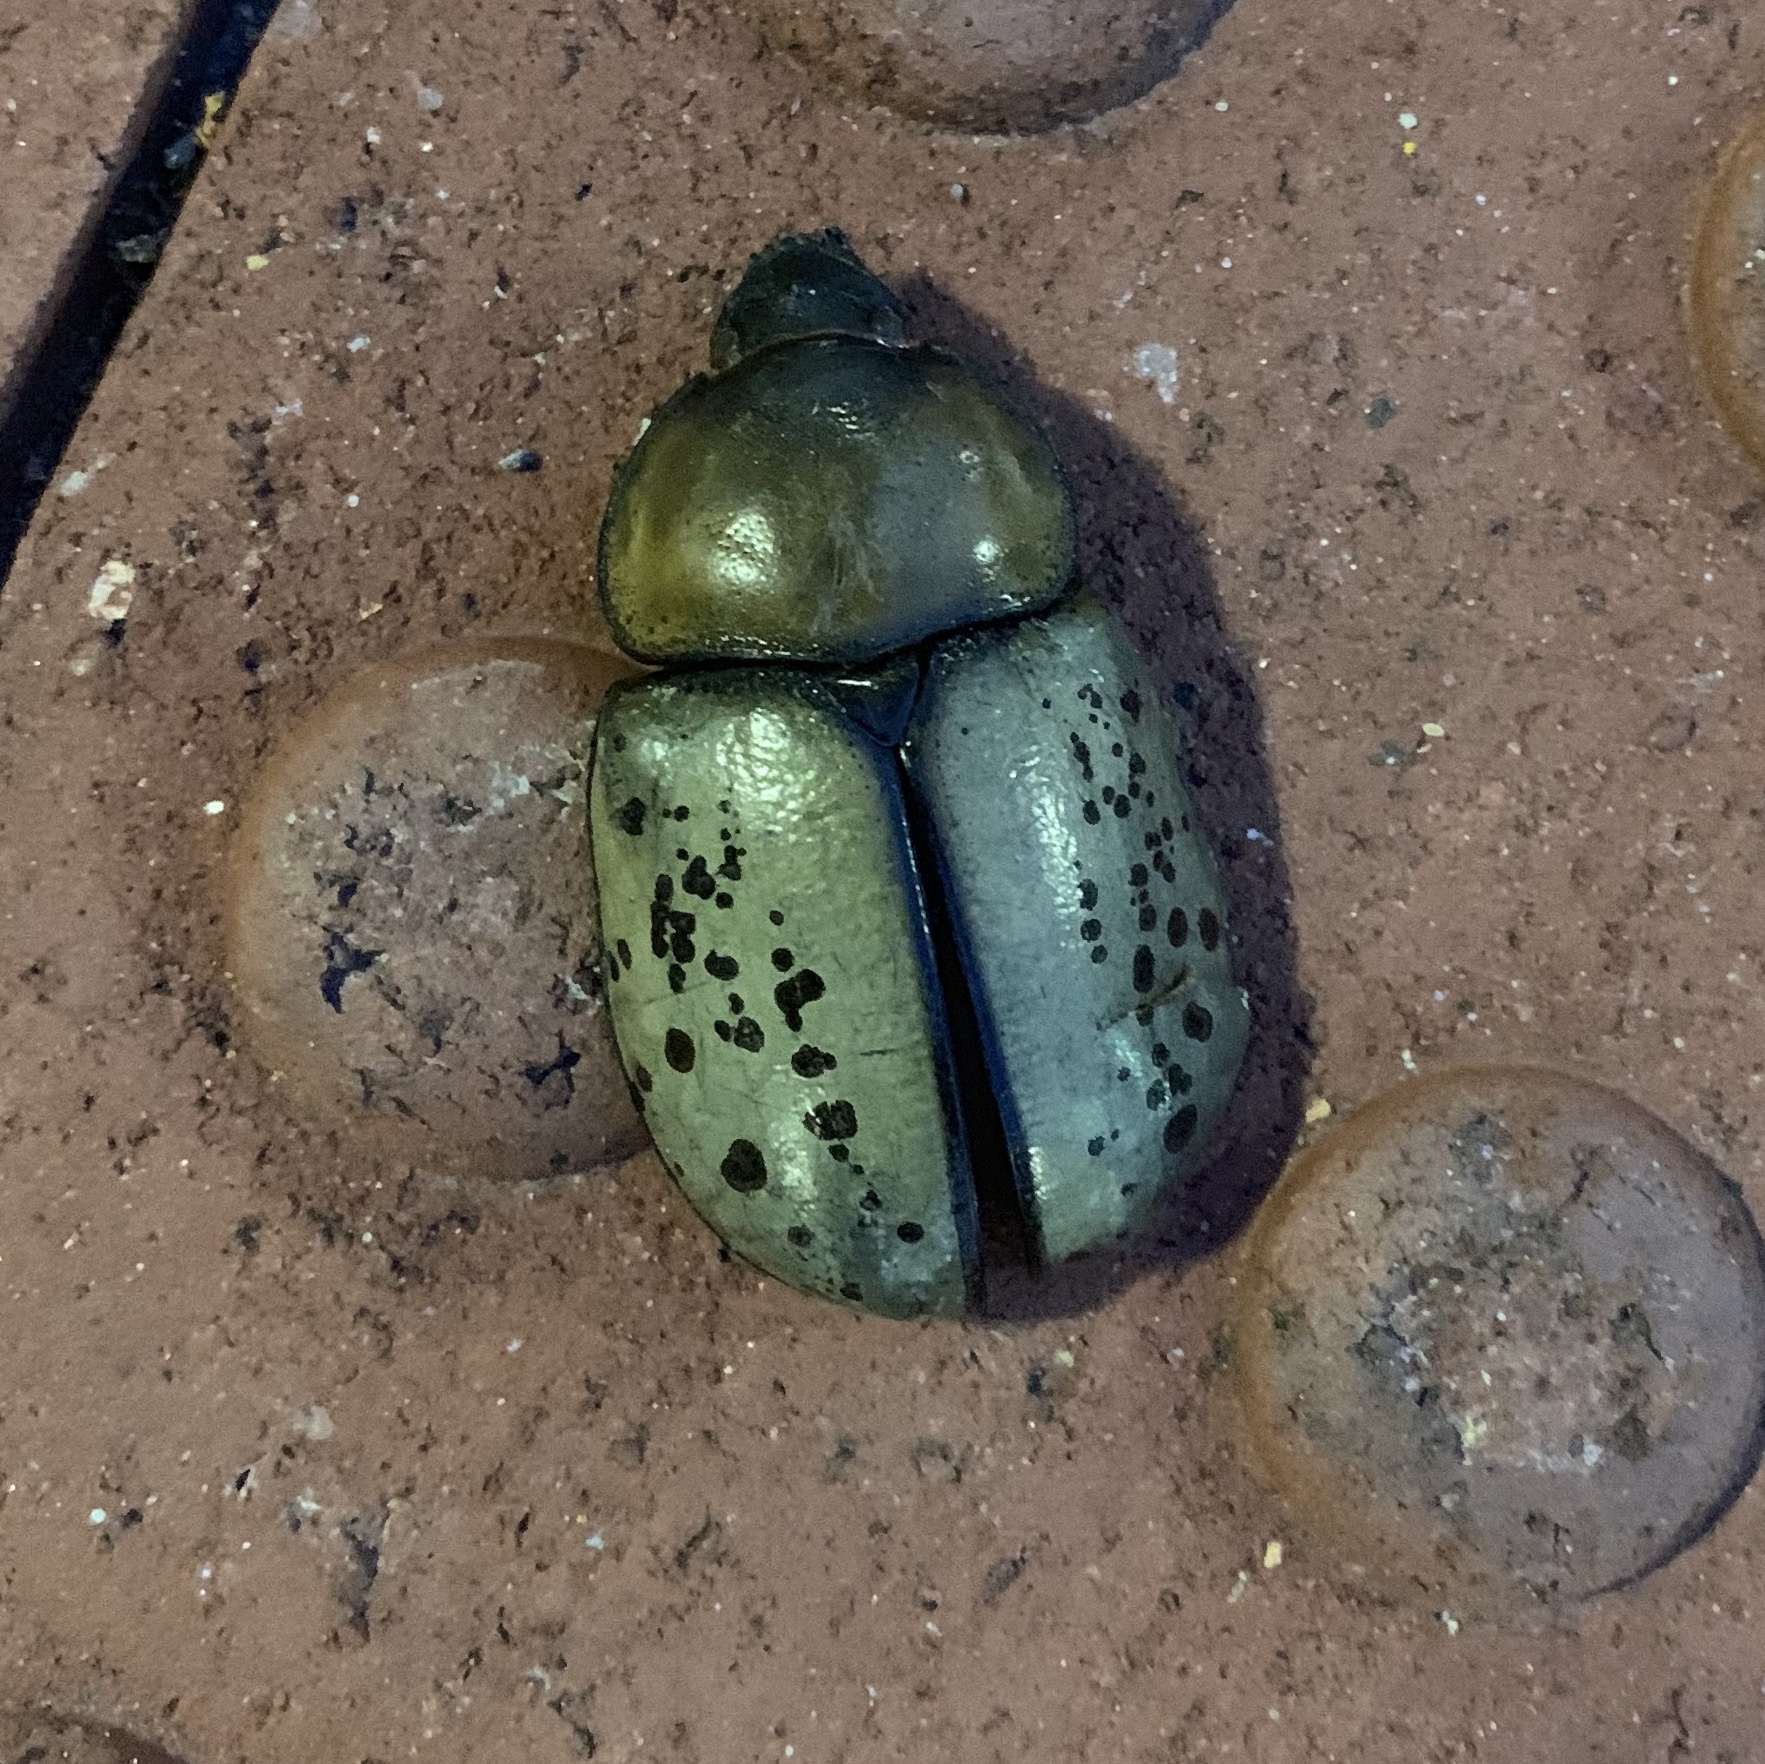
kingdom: Animalia
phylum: Arthropoda
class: Insecta
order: Coleoptera
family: Scarabaeidae
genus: Dynastes
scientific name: Dynastes tityus
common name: Eastern hercules beetle
